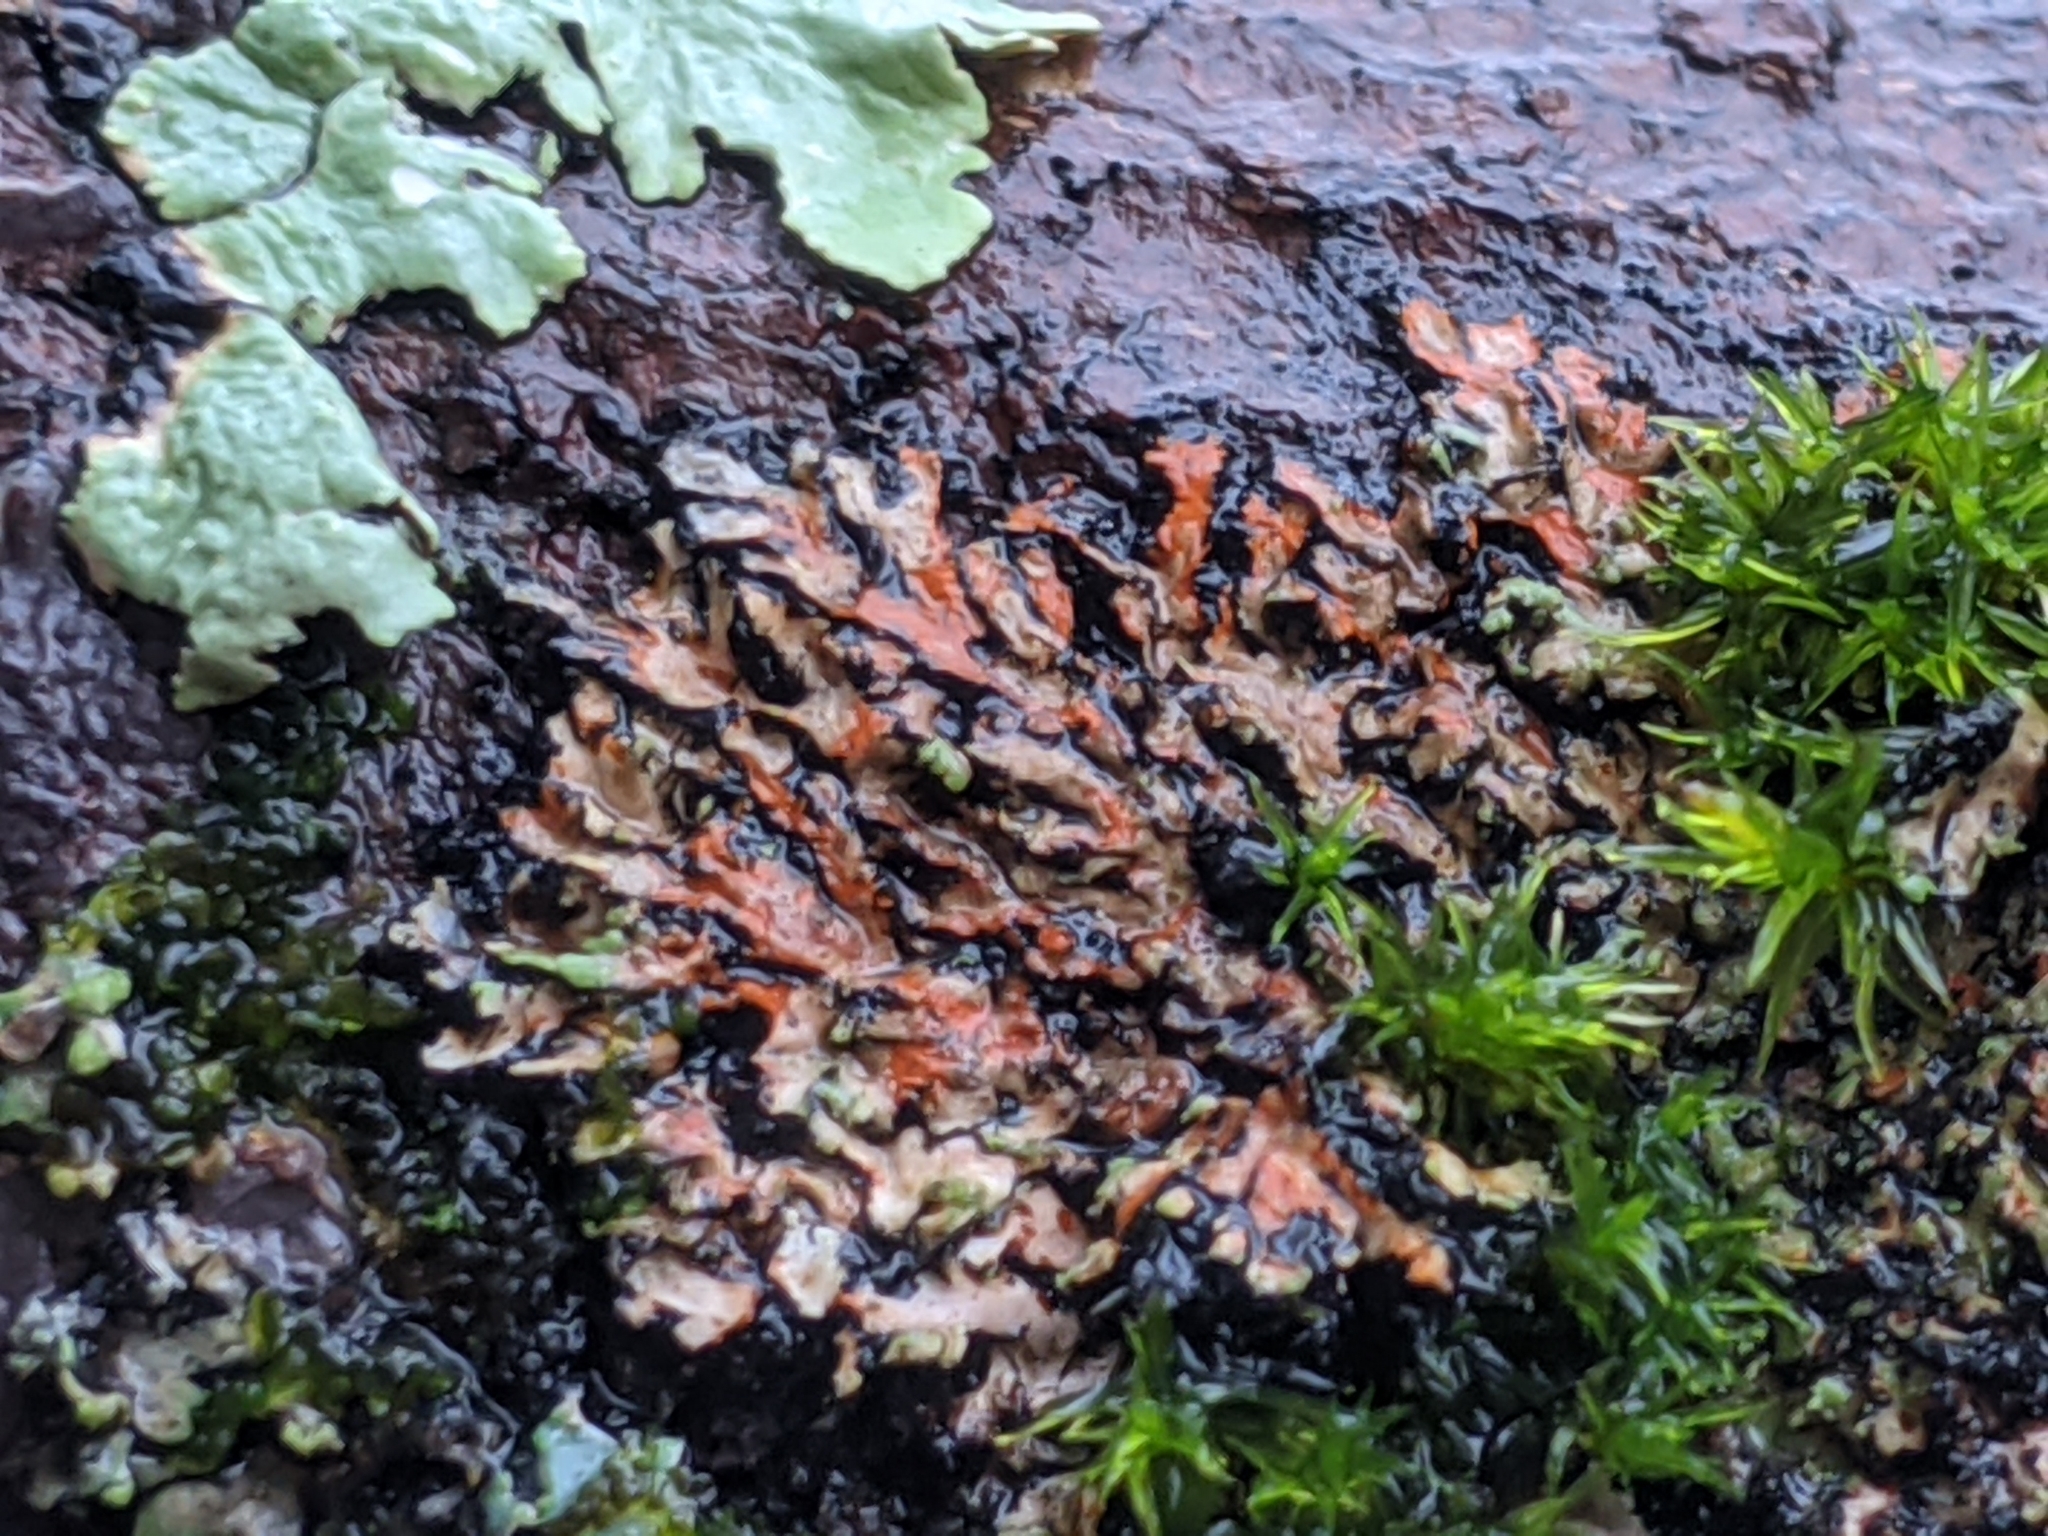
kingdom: Fungi
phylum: Ascomycota
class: Lecanoromycetes
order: Caliciales
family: Physciaceae
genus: Phaeophyscia
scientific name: Phaeophyscia rubropulchra
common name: Orange-cored shadow lichen
